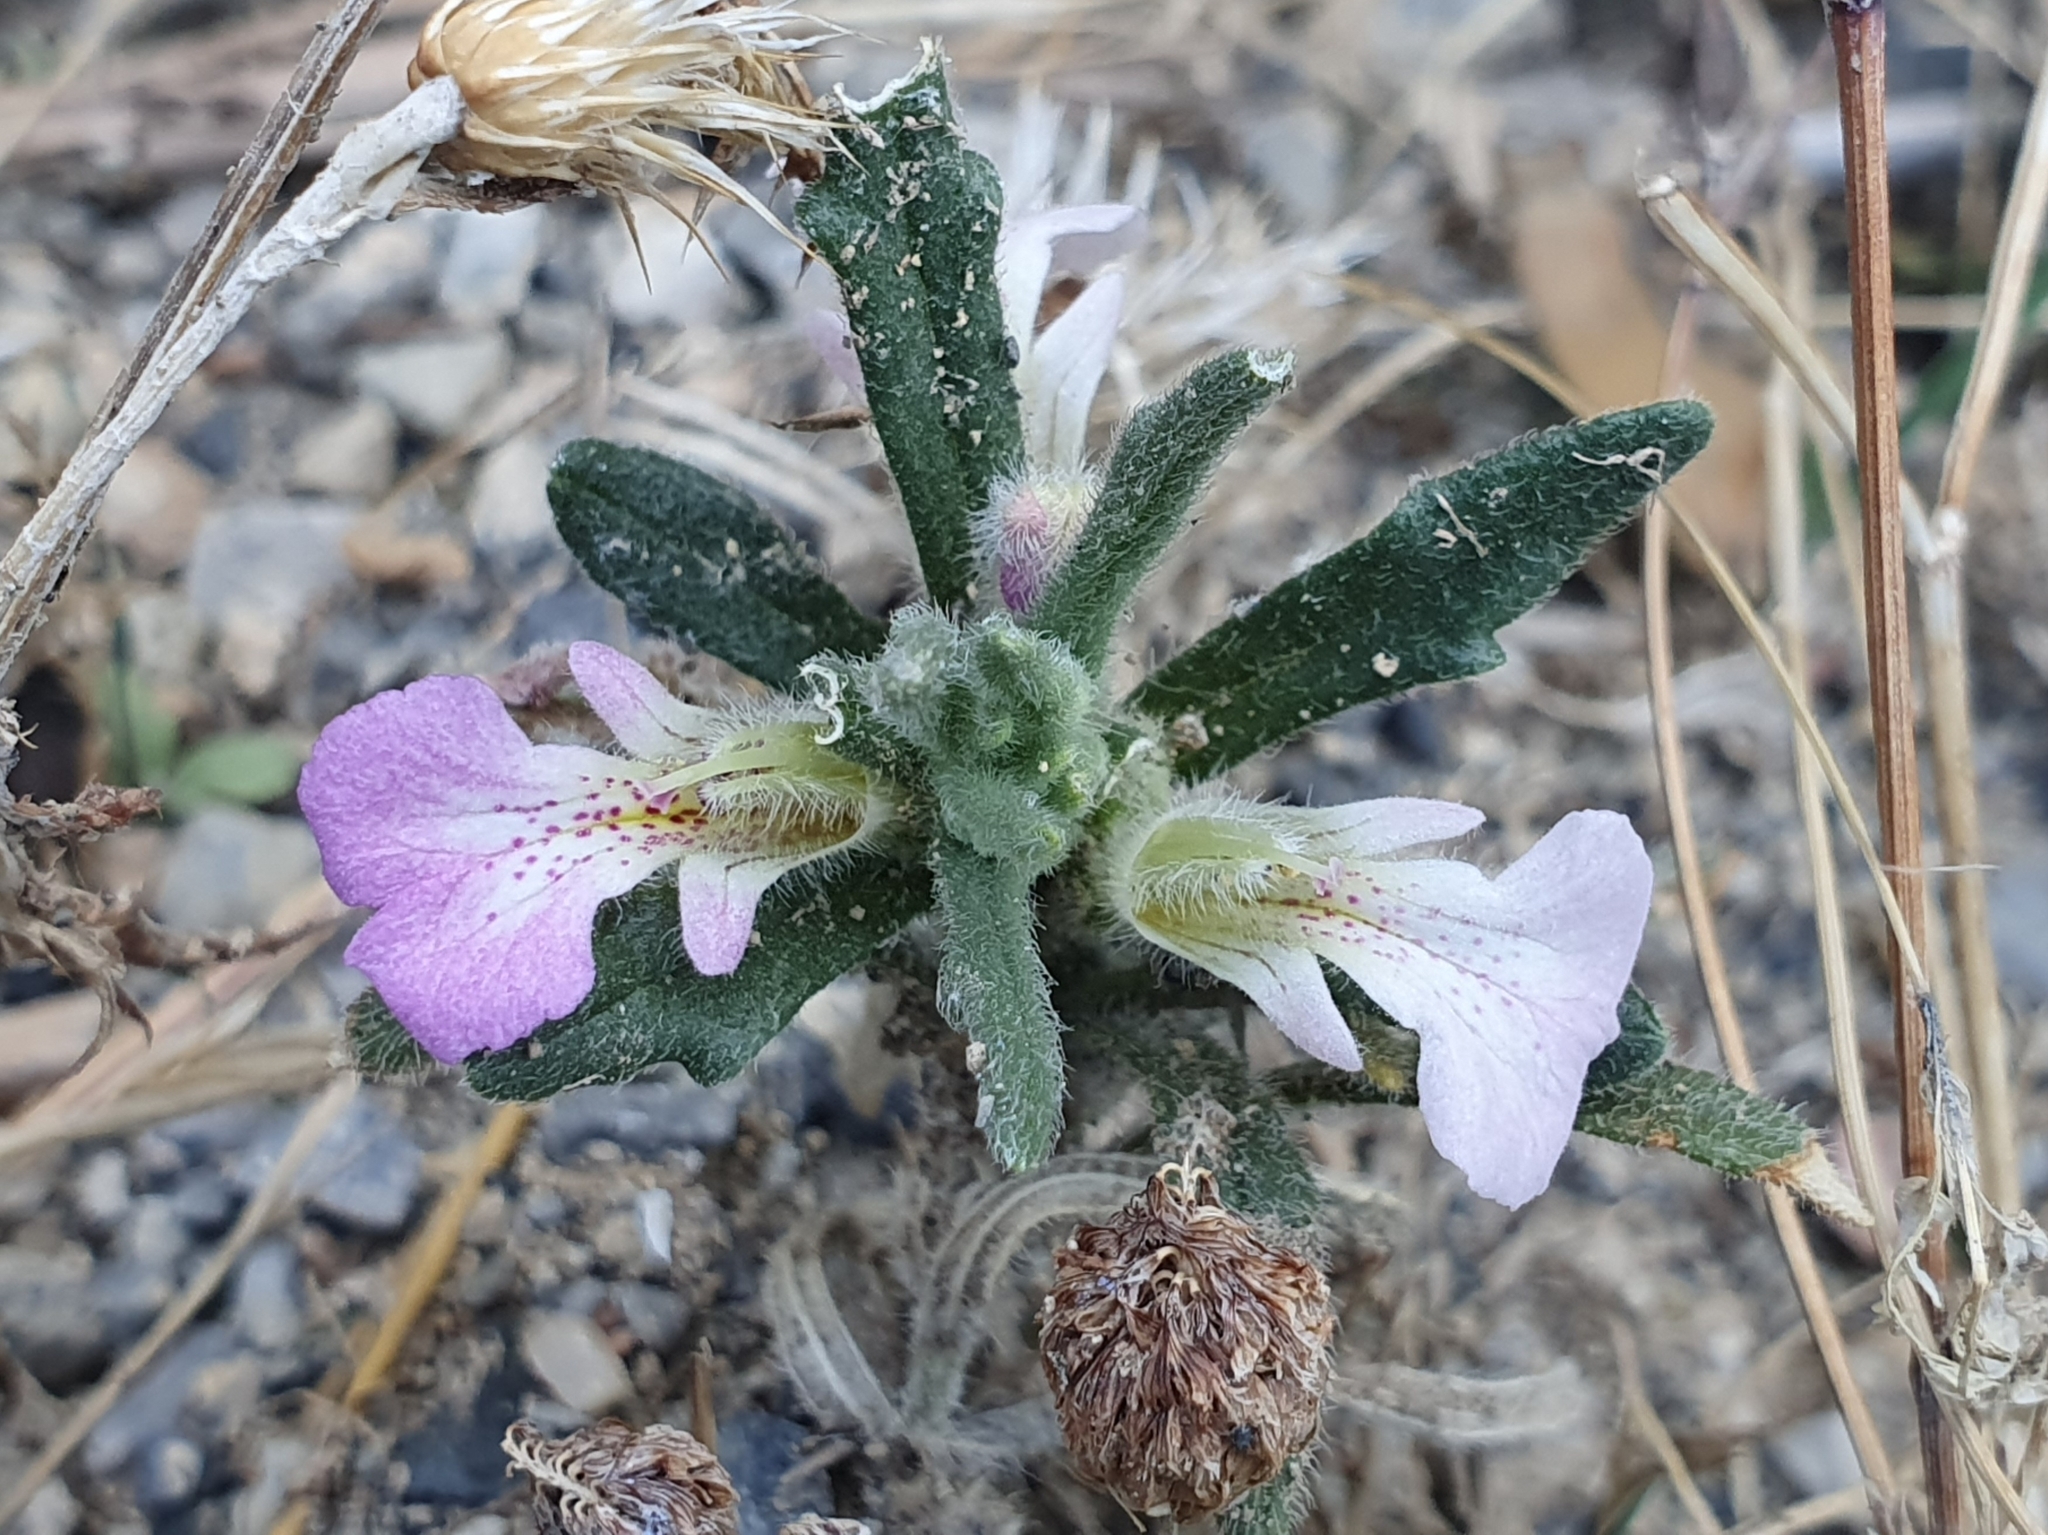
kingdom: Plantae
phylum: Tracheophyta
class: Magnoliopsida
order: Lamiales
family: Lamiaceae
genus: Ajuga
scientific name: Ajuga iva
